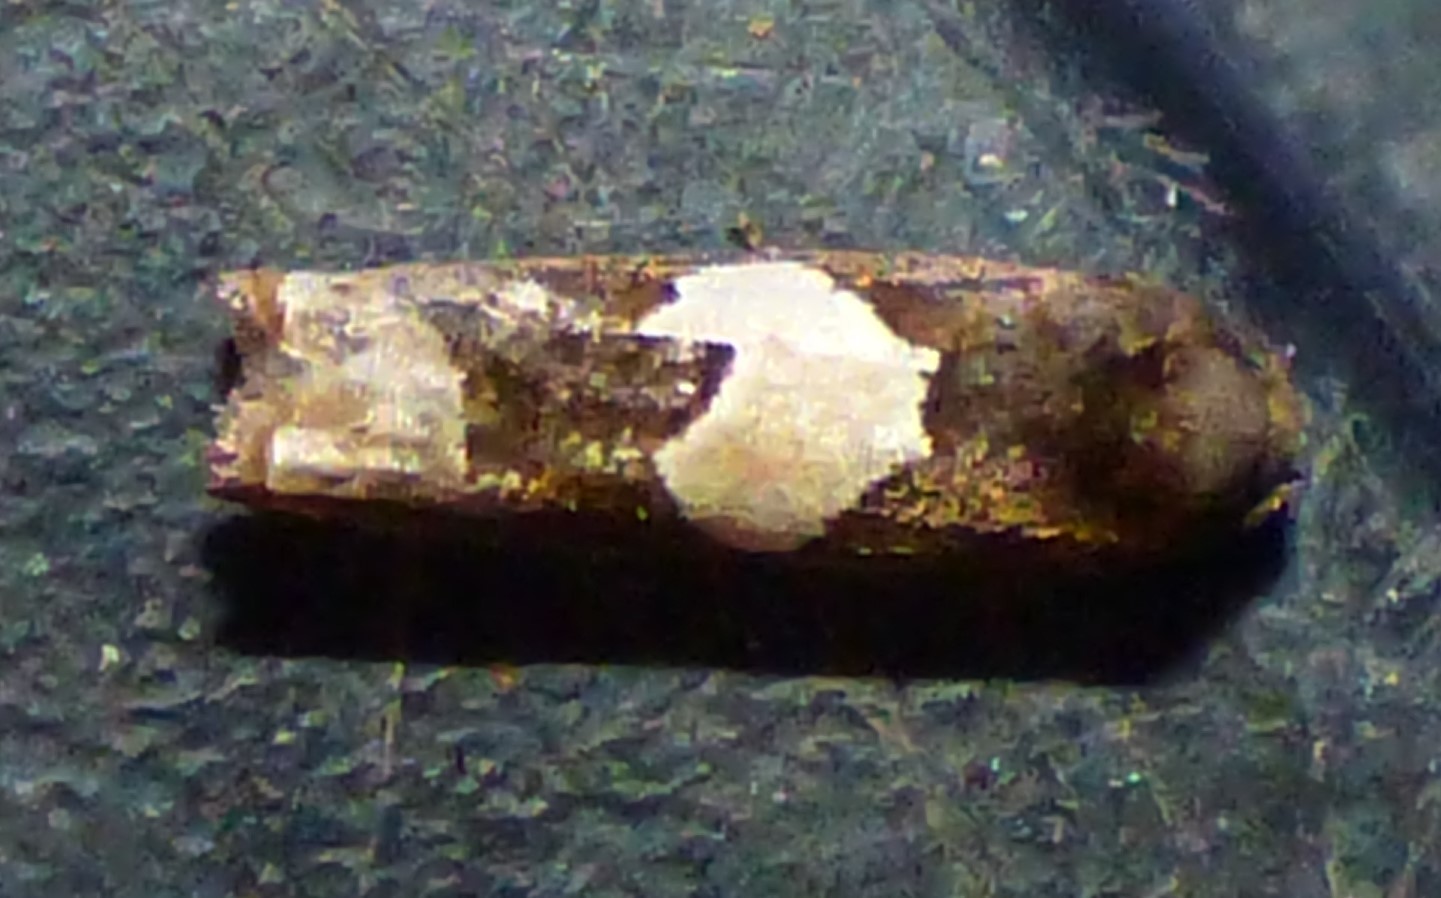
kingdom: Animalia
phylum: Arthropoda
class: Insecta
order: Lepidoptera
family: Tortricidae
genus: Epiblema
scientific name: Epiblema otiosana
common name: Bidens borer moth
